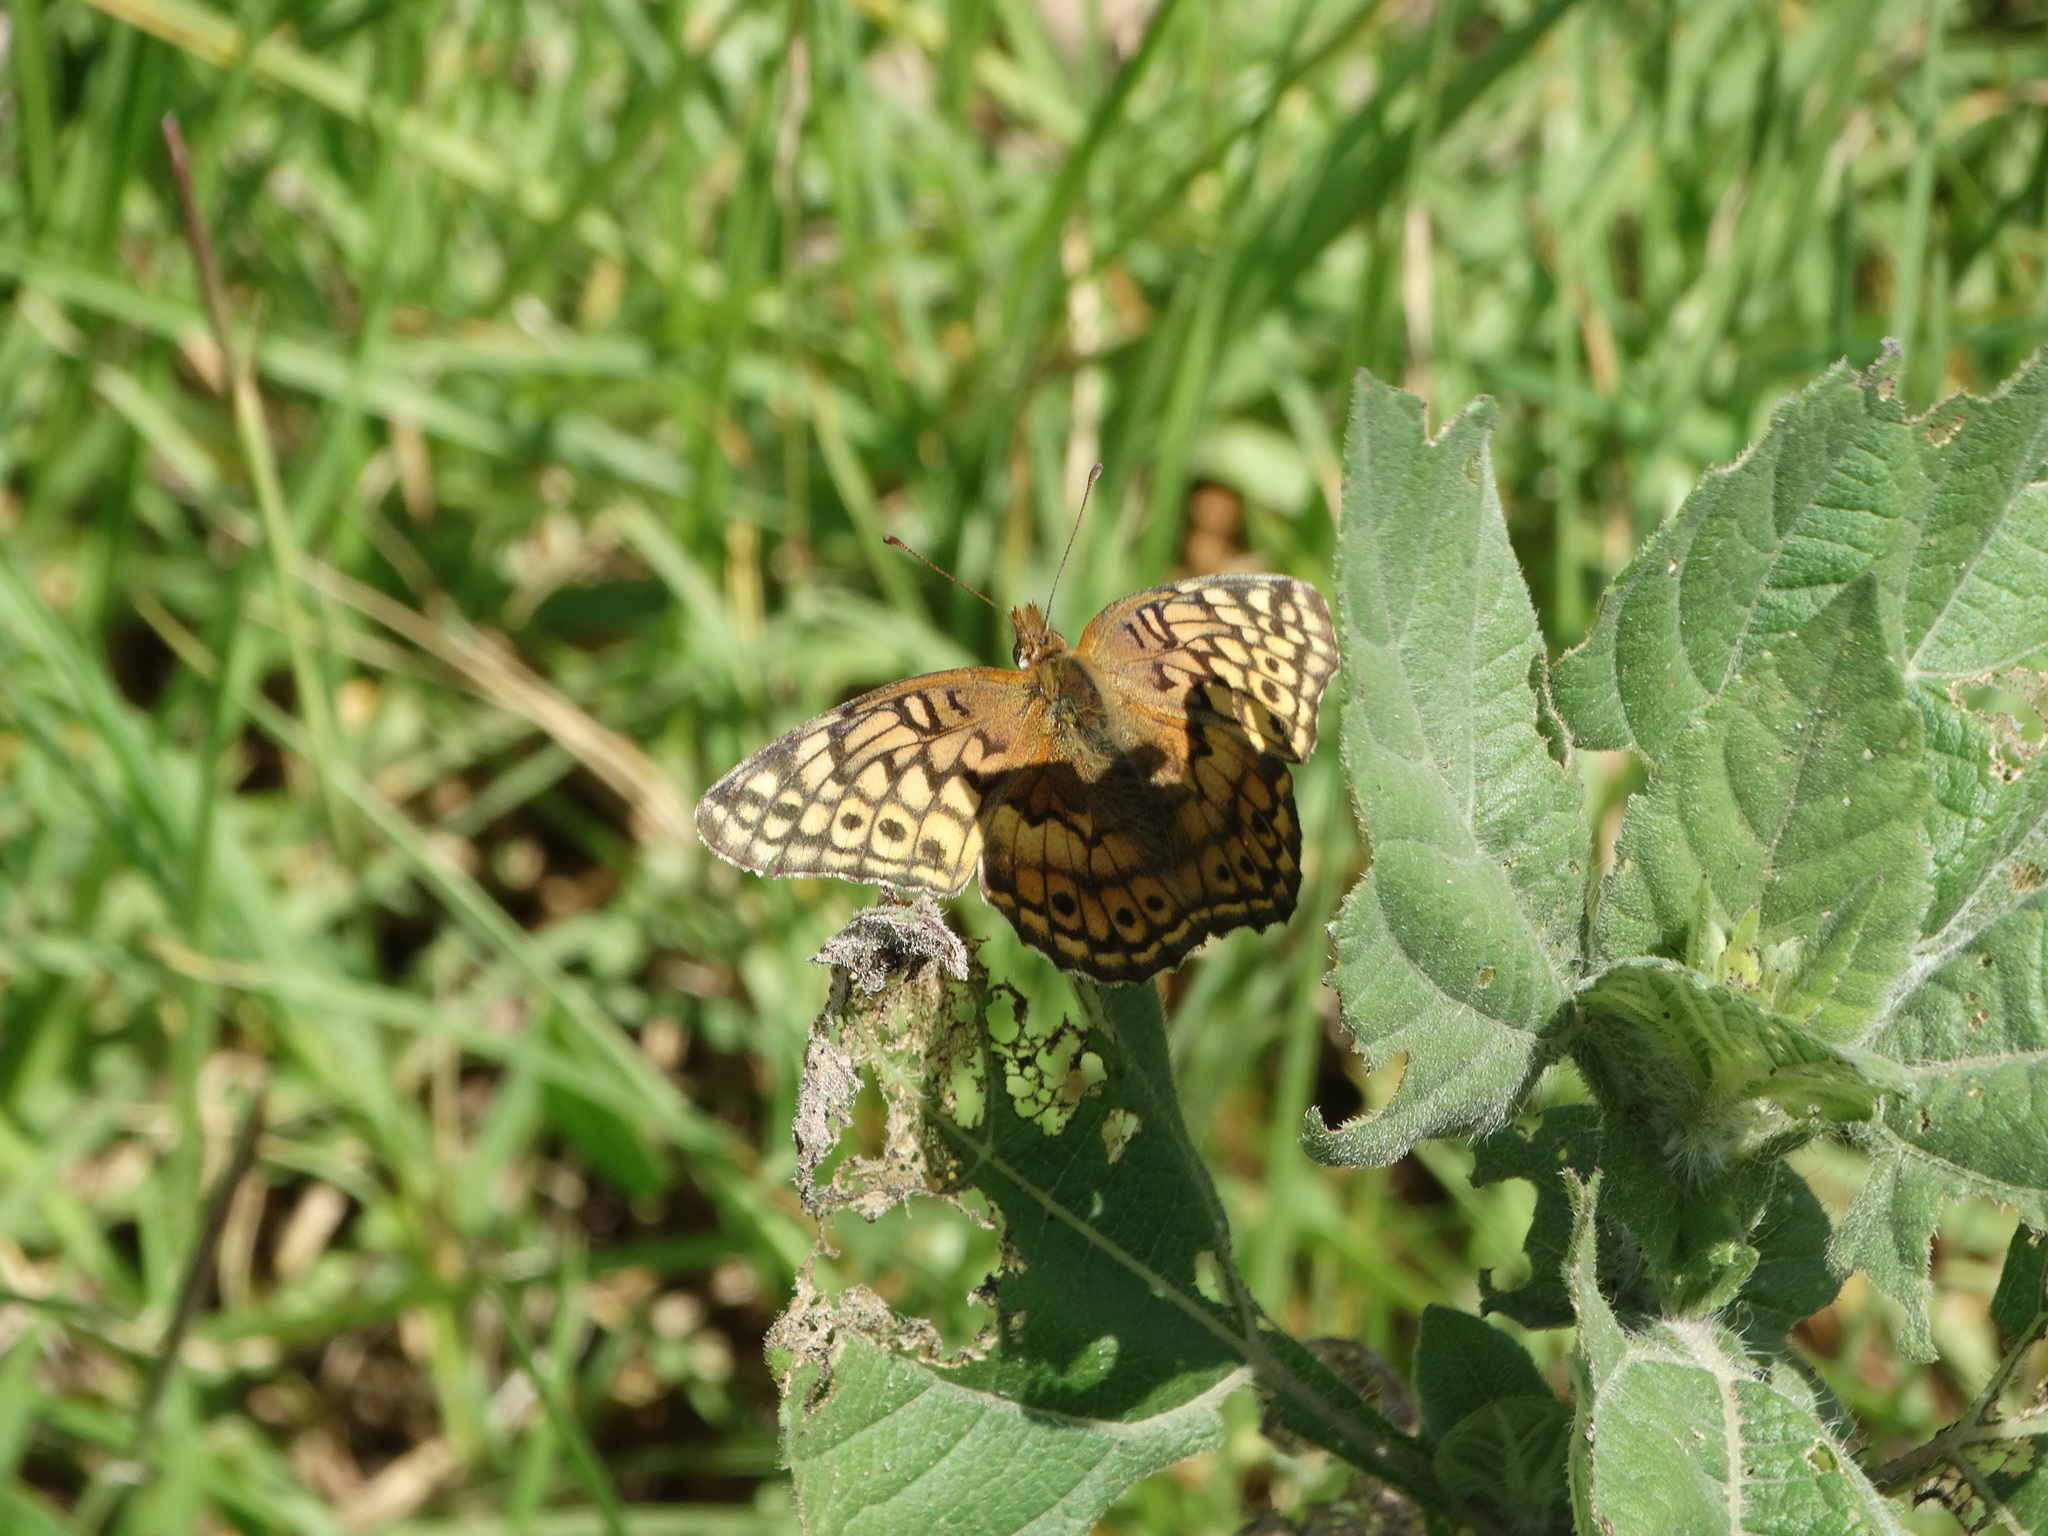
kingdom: Animalia
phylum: Arthropoda
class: Insecta
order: Lepidoptera
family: Nymphalidae
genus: Euptoieta
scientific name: Euptoieta claudia
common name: Variegated fritillary
